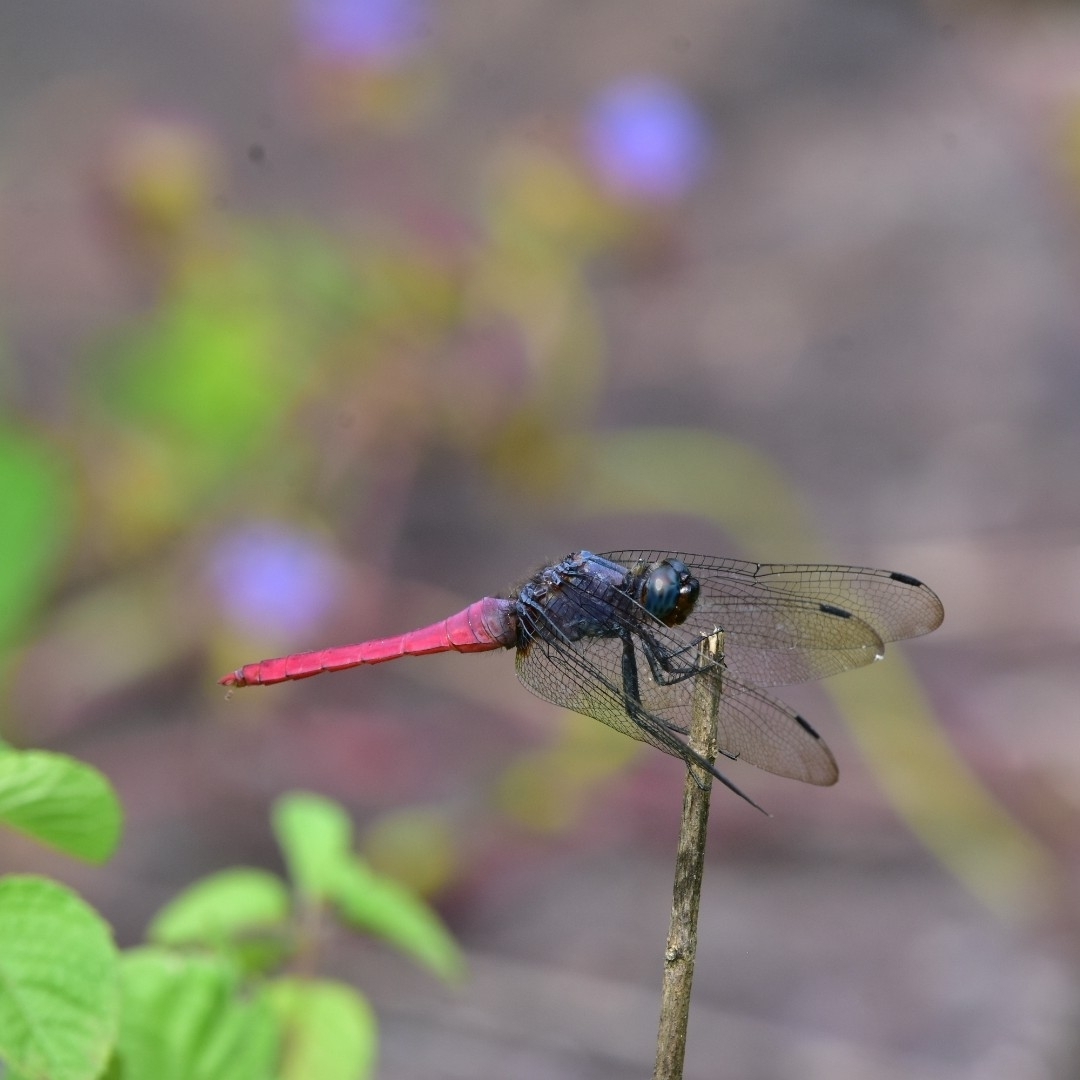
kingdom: Animalia
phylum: Arthropoda
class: Insecta
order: Odonata
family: Libellulidae
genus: Orthetrum
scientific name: Orthetrum pruinosum
